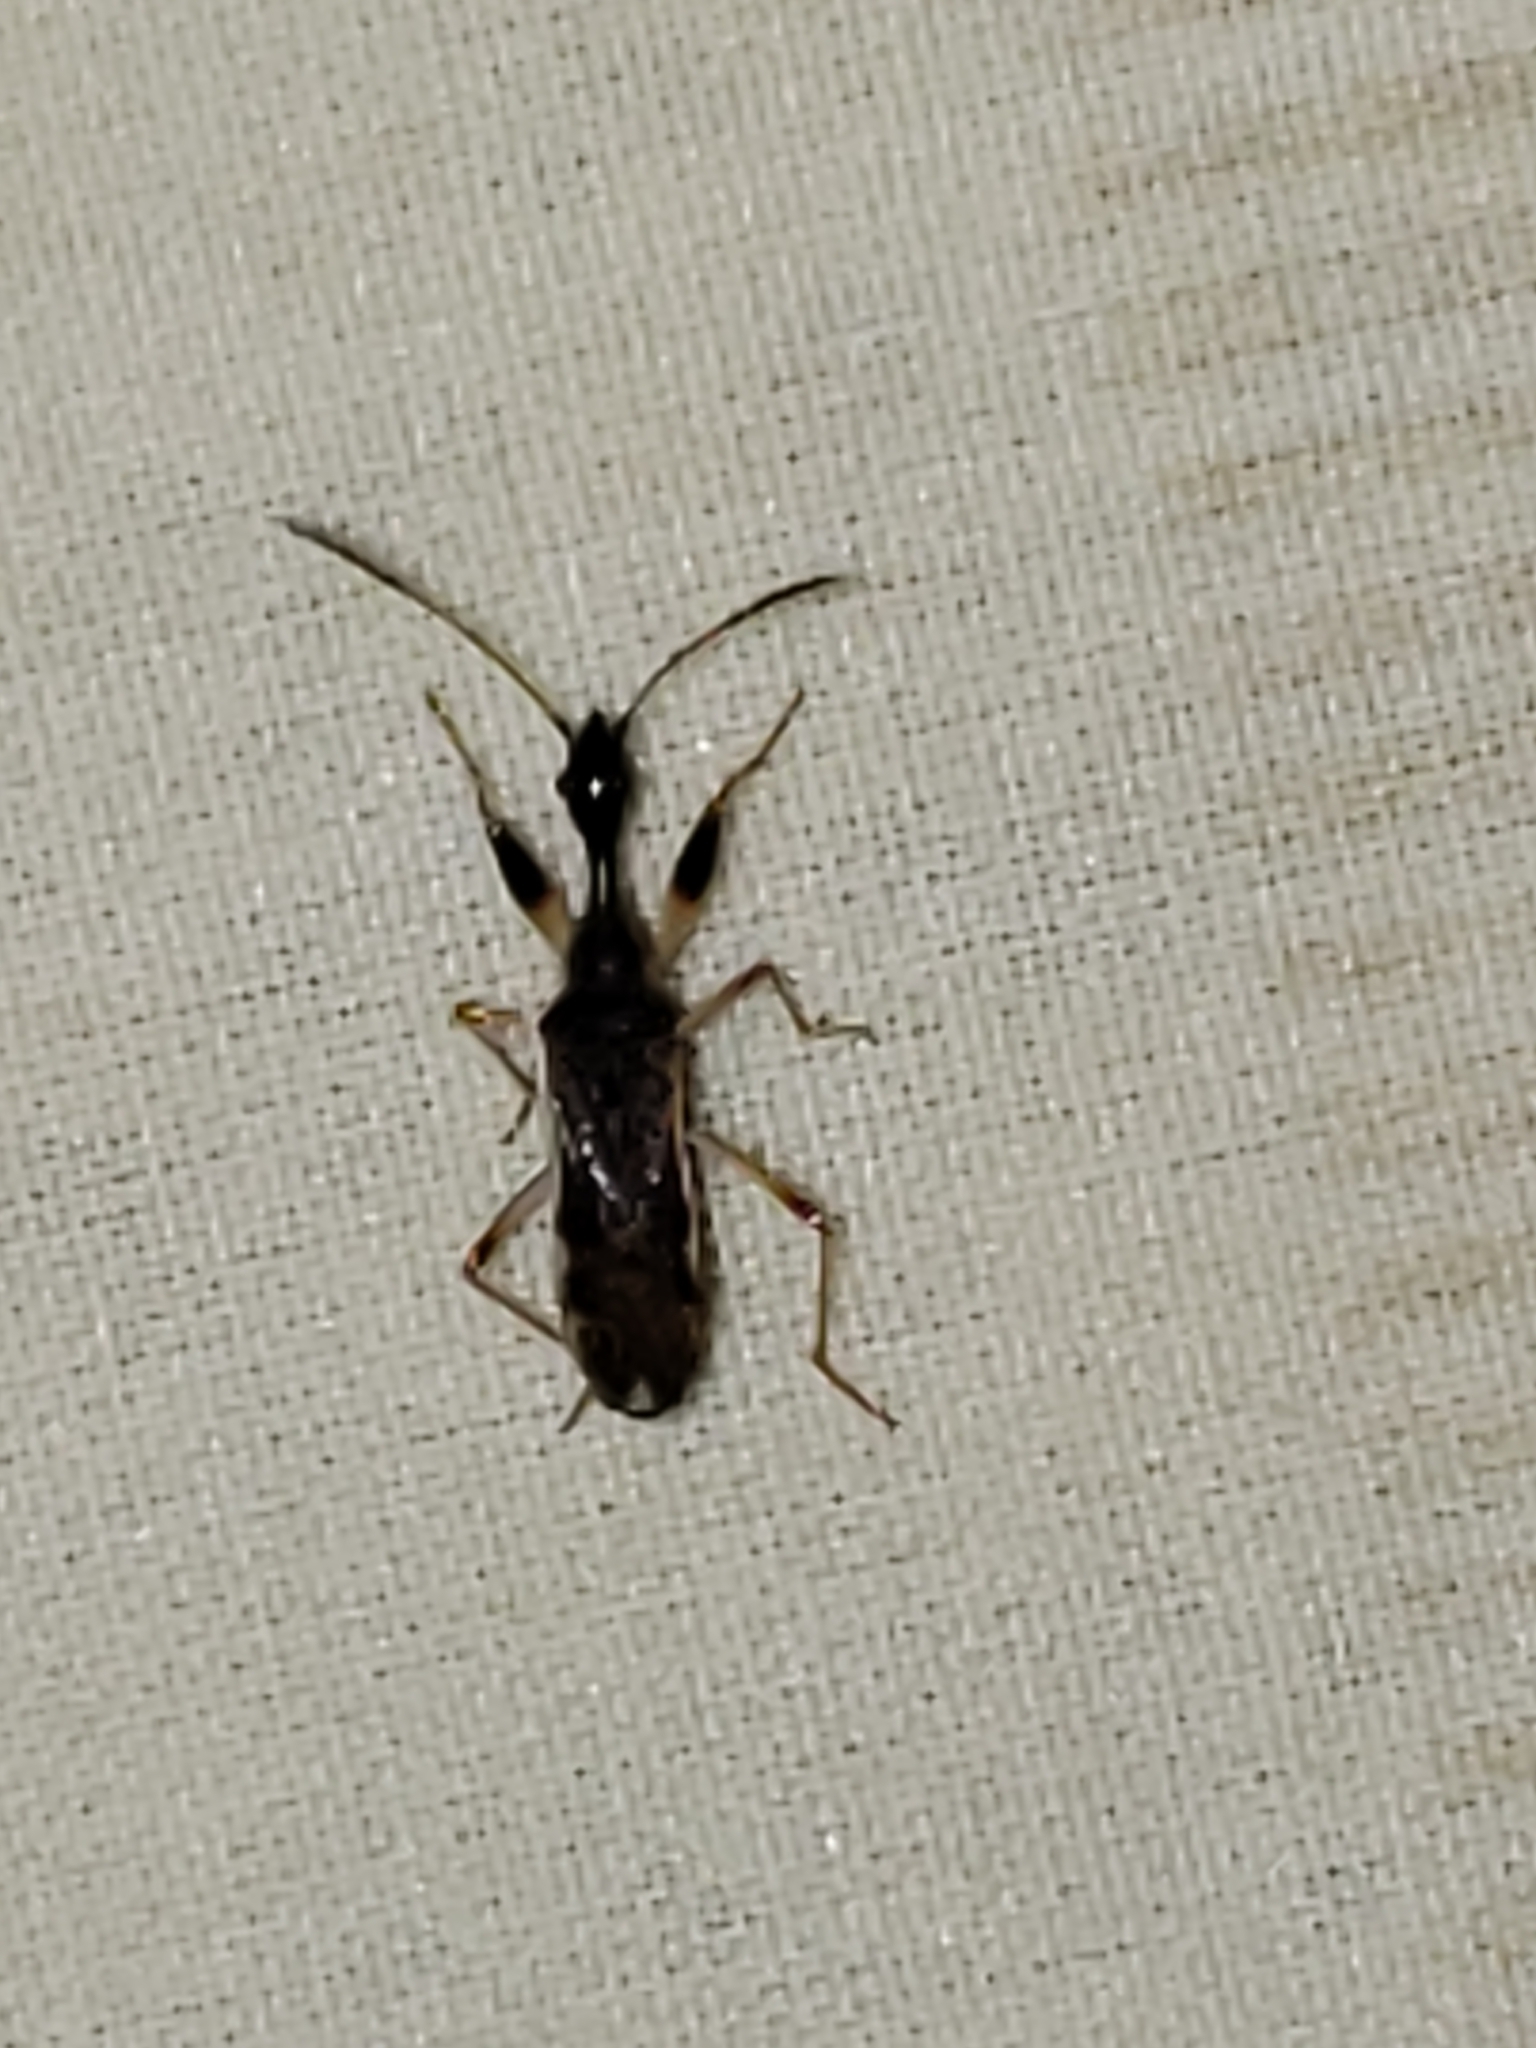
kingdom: Animalia
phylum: Arthropoda
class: Insecta
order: Hemiptera
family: Rhyparochromidae
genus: Myodocha
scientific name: Myodocha serripes
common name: Long-necked seed bug
